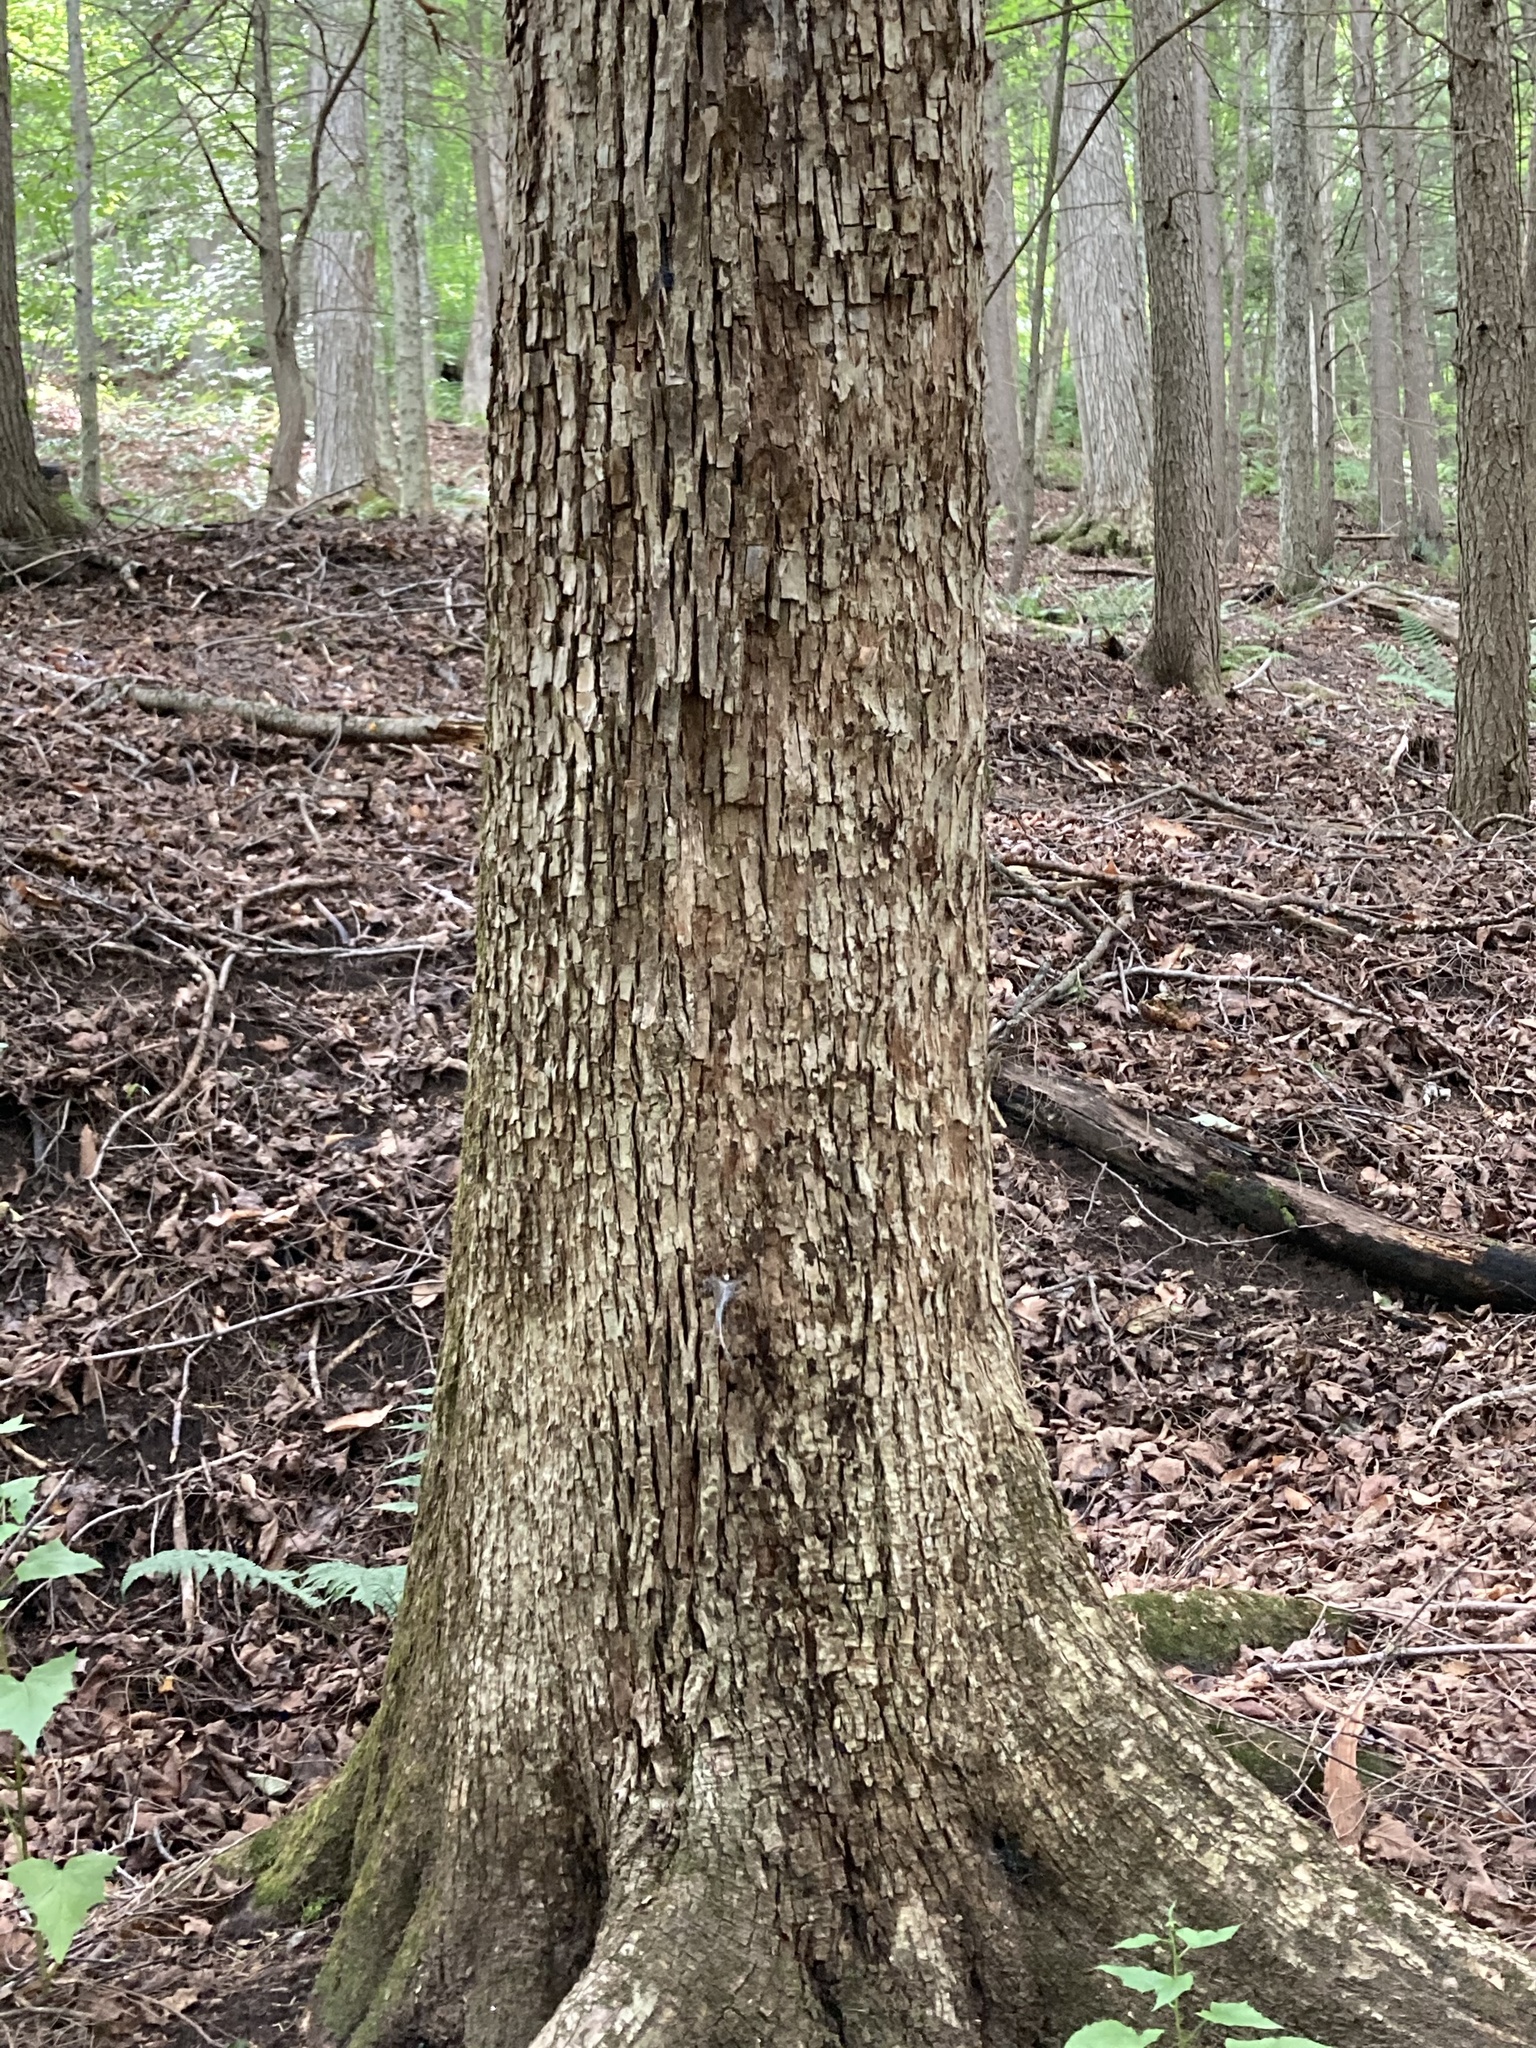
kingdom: Plantae
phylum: Tracheophyta
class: Magnoliopsida
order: Fagales
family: Betulaceae
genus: Ostrya
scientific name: Ostrya virginiana
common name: Ironwood
